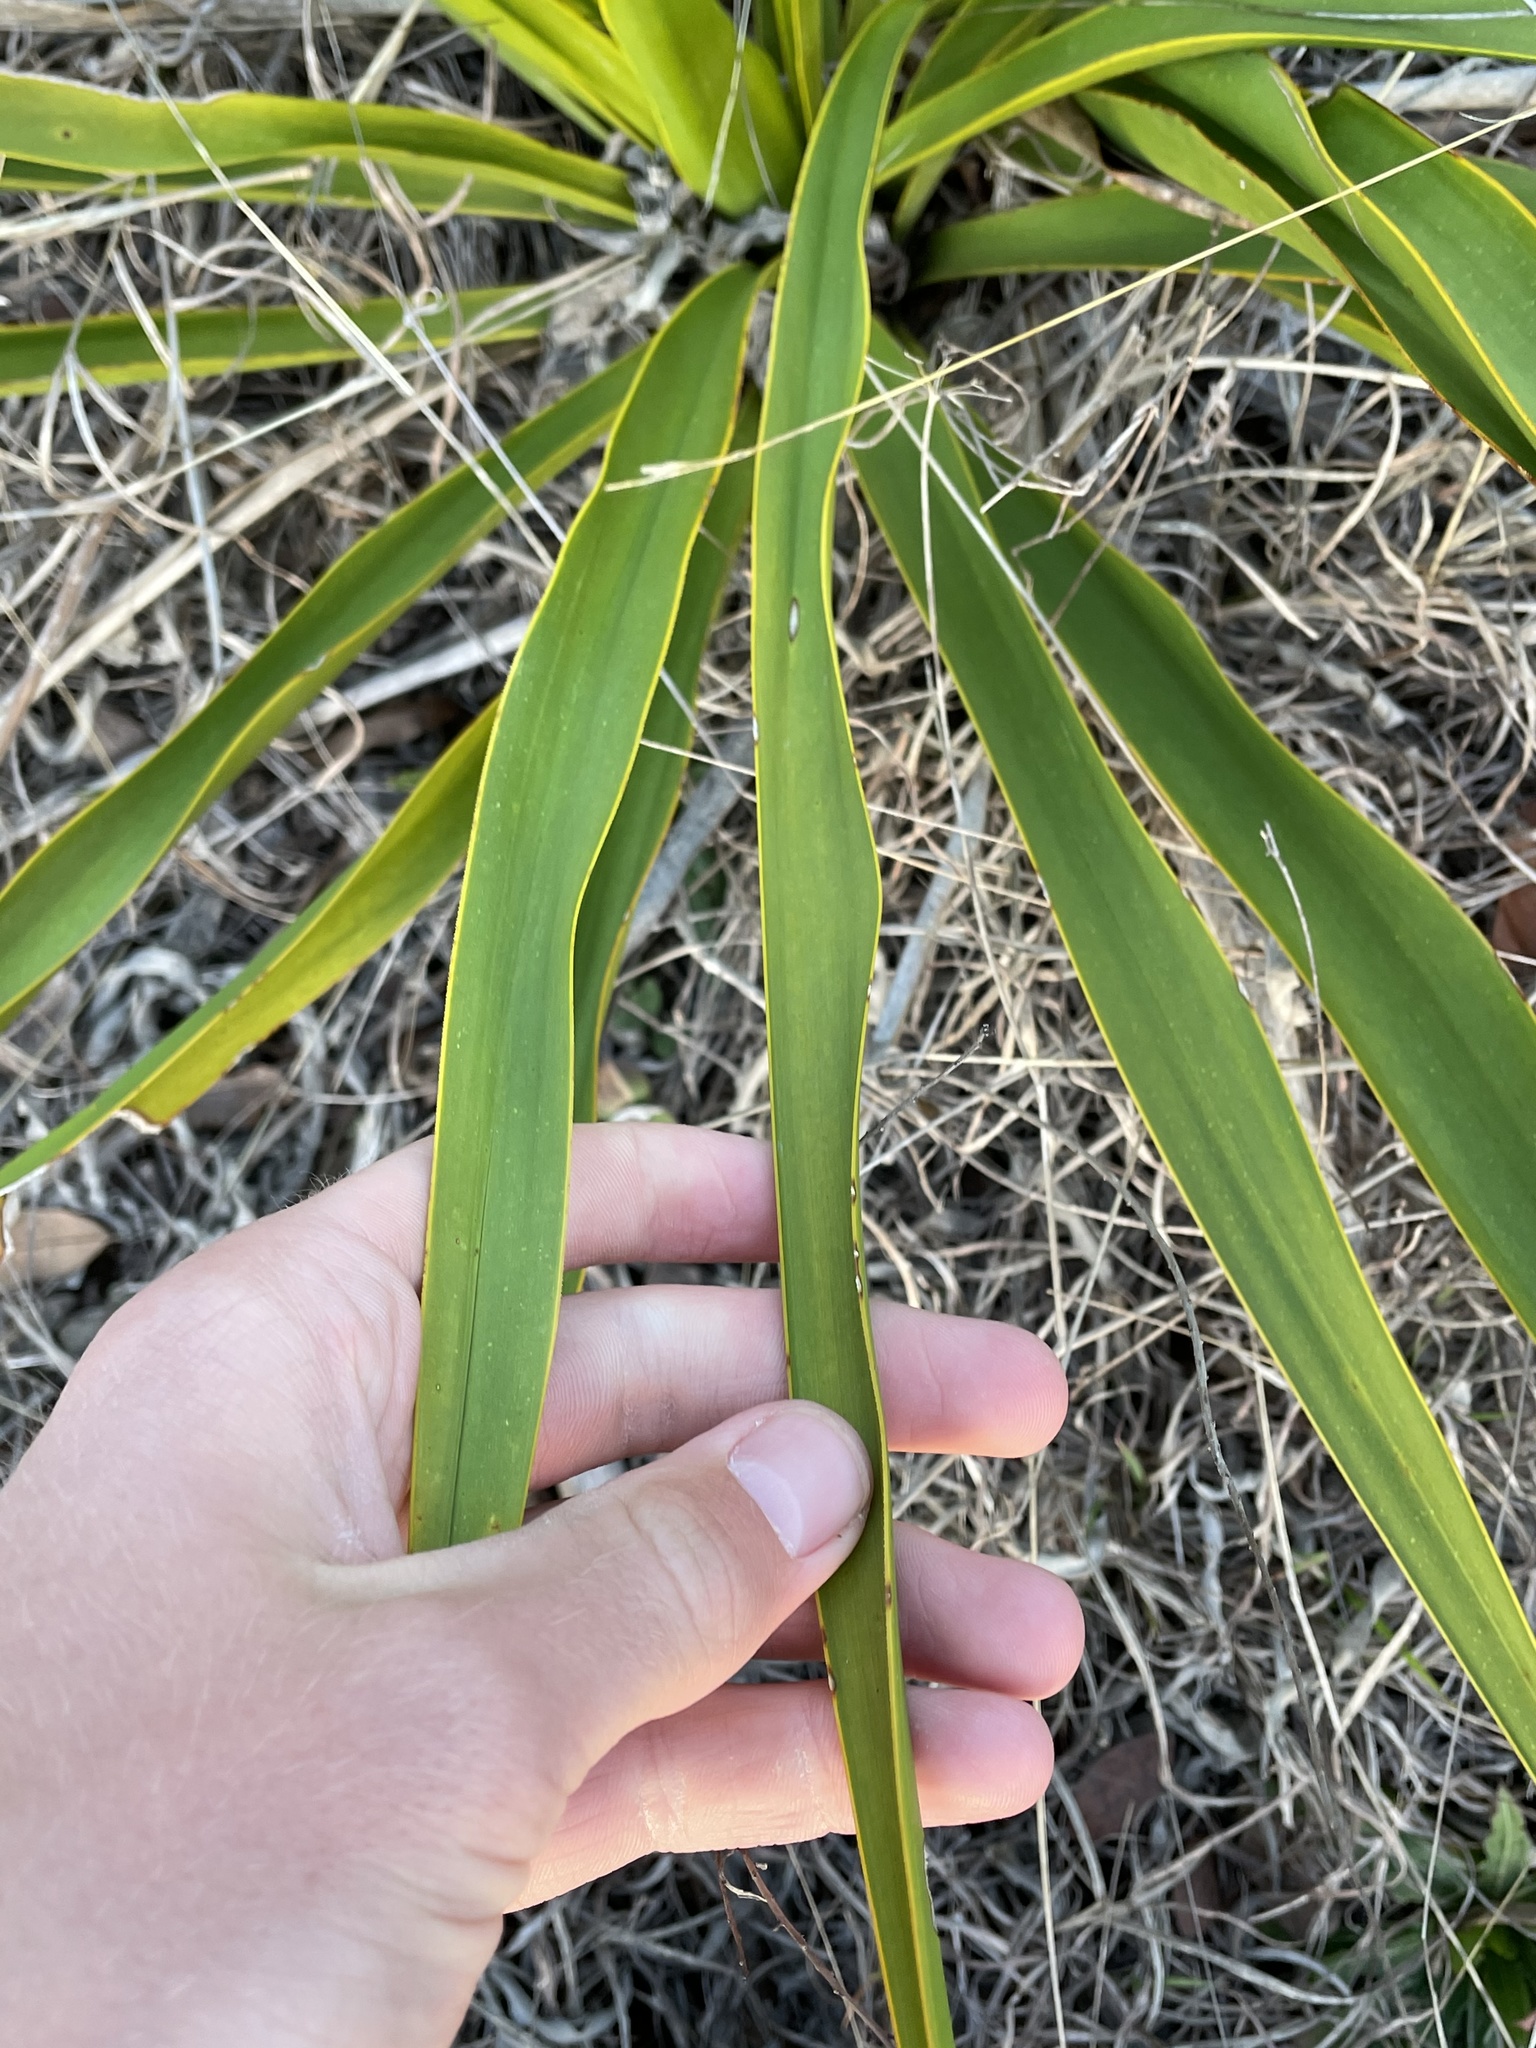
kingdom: Plantae
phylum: Tracheophyta
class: Liliopsida
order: Asparagales
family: Asparagaceae
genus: Yucca
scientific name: Yucca rupicola
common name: Twisted-leaf spanish-dagger
